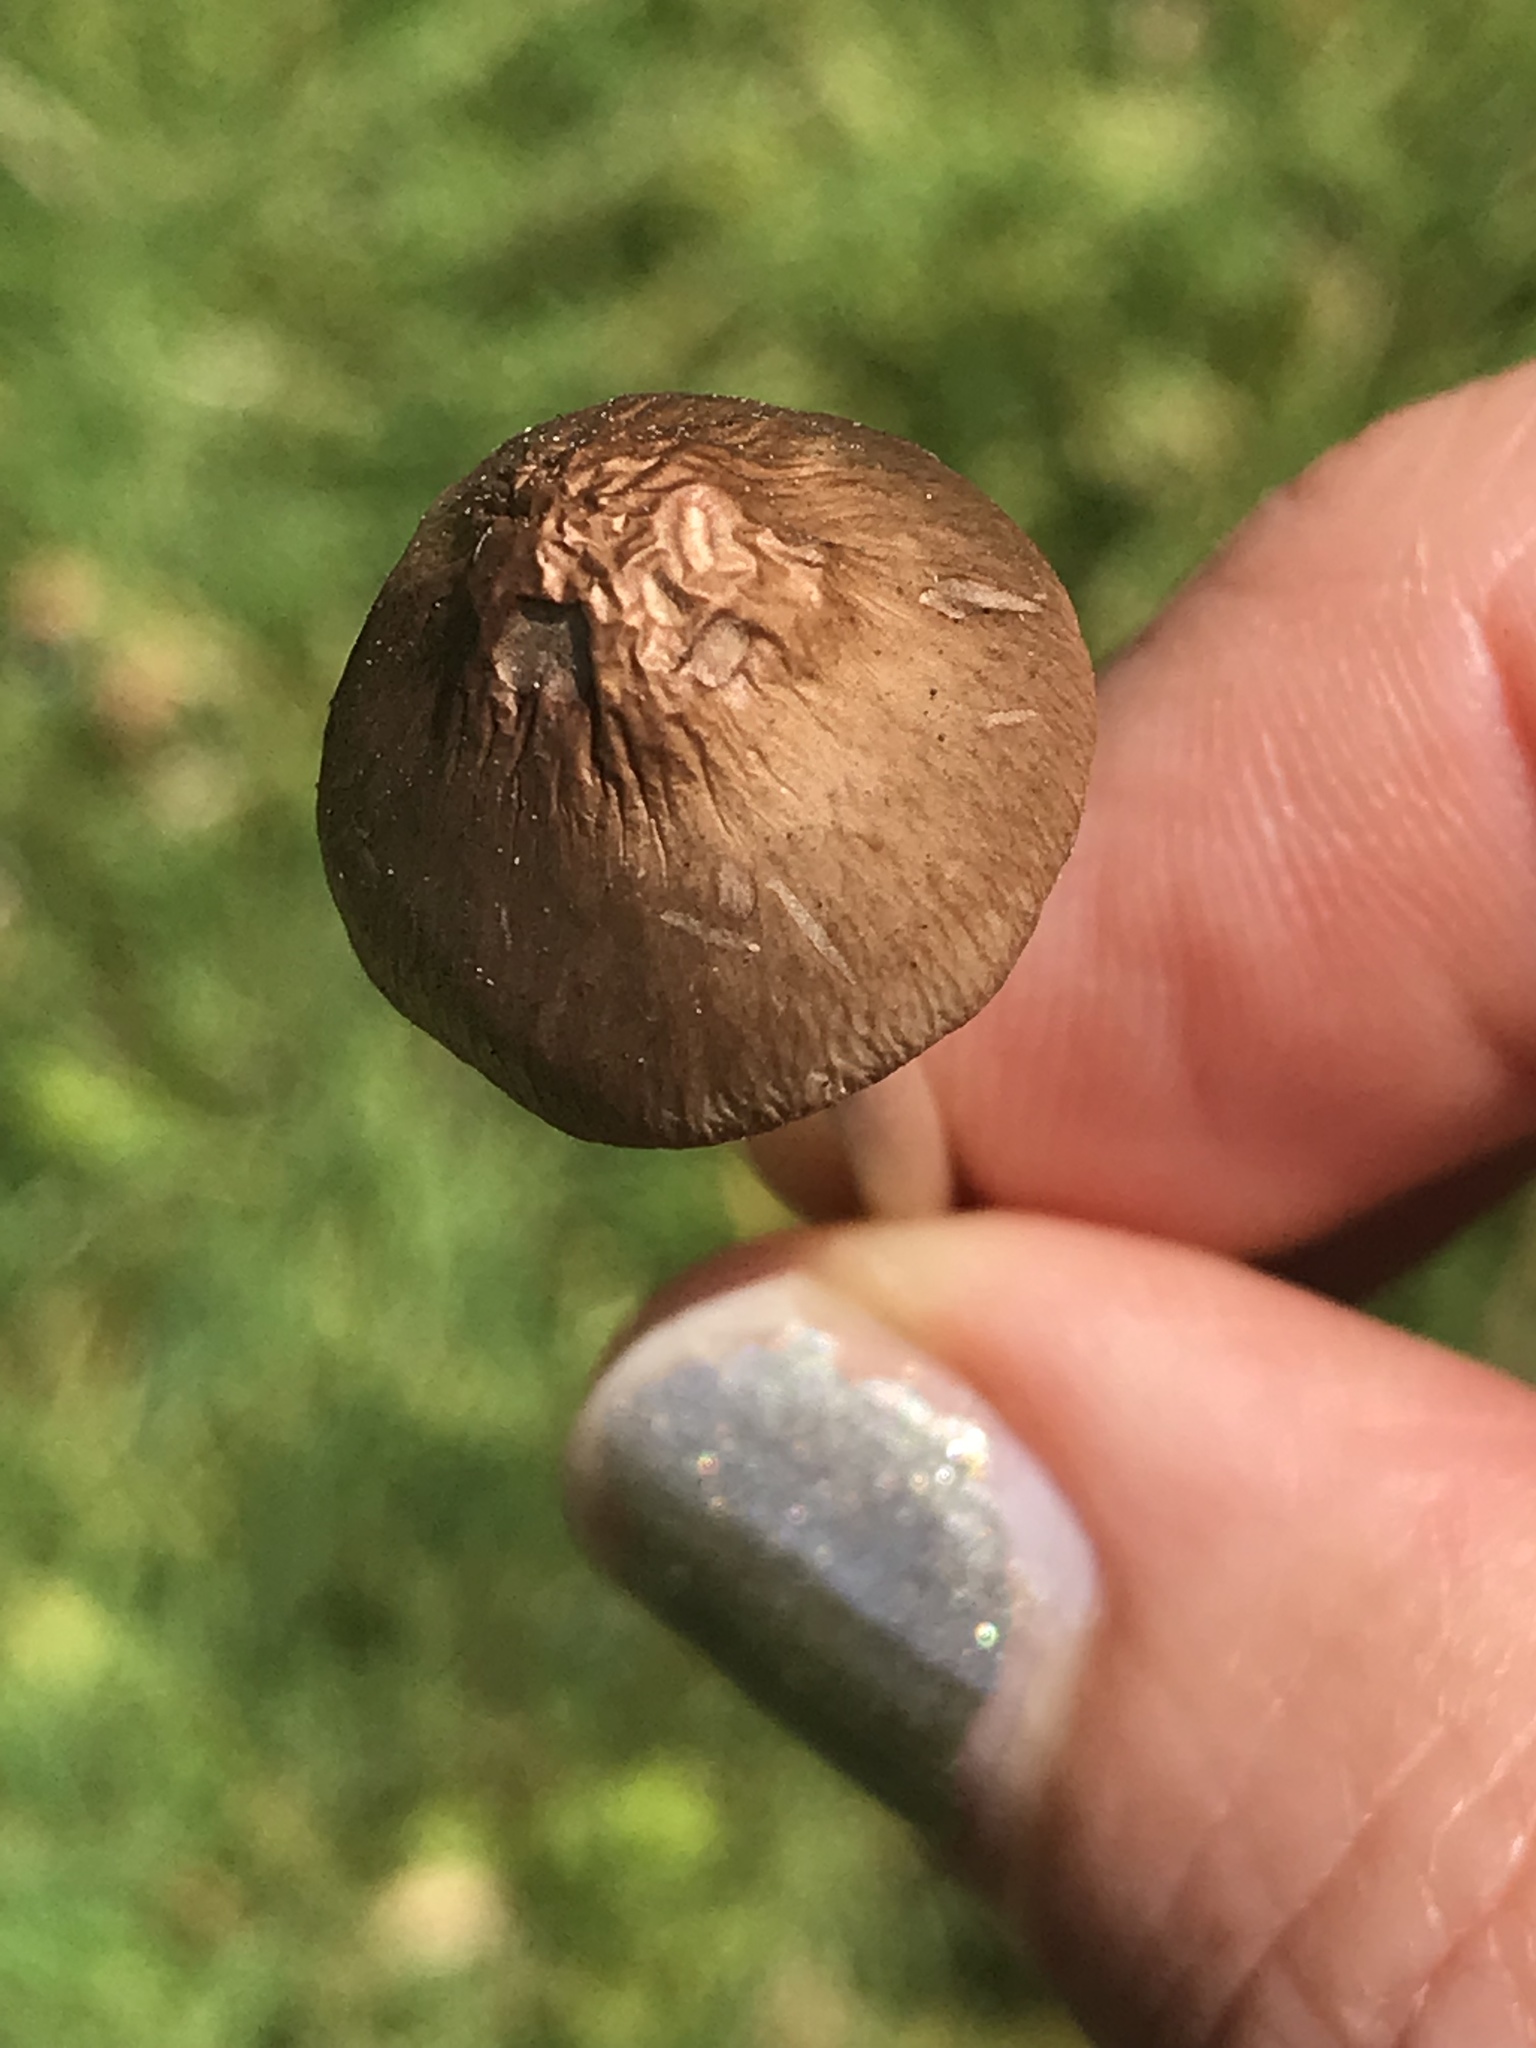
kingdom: Fungi
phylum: Basidiomycota
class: Agaricomycetes
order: Agaricales
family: Bolbitiaceae
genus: Panaeolina
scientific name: Panaeolina foenisecii
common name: Brown hay cap
